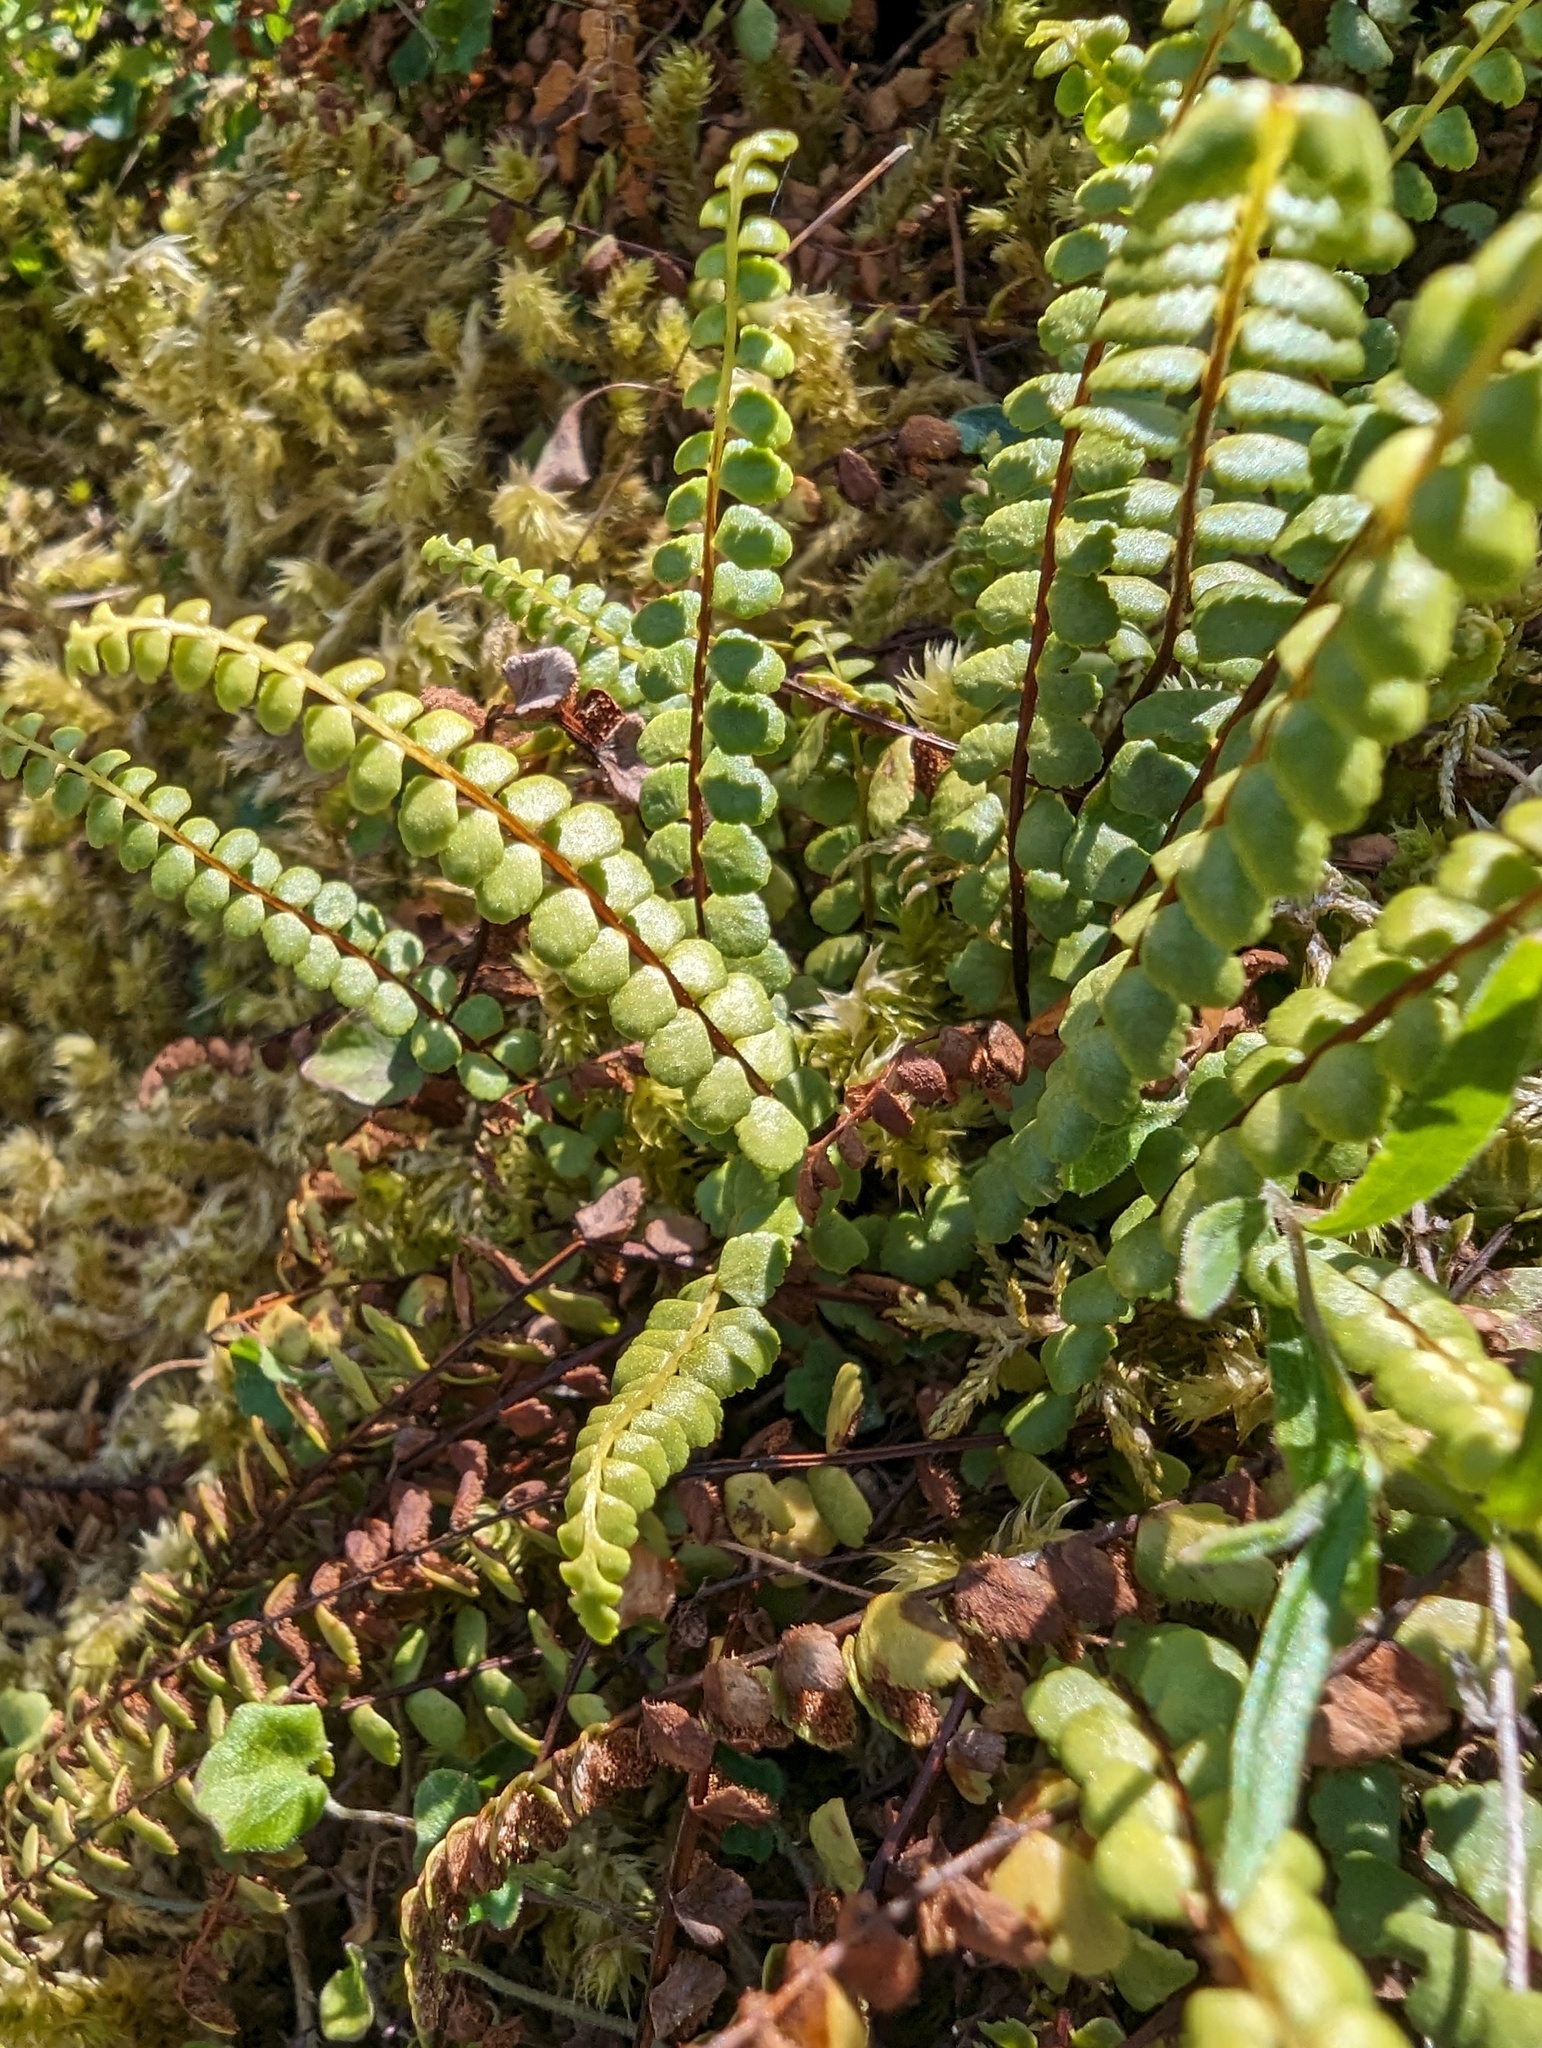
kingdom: Plantae
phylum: Tracheophyta
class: Polypodiopsida
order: Polypodiales
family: Aspleniaceae
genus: Asplenium
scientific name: Asplenium adulterinum
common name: Adulterated spleenwort
